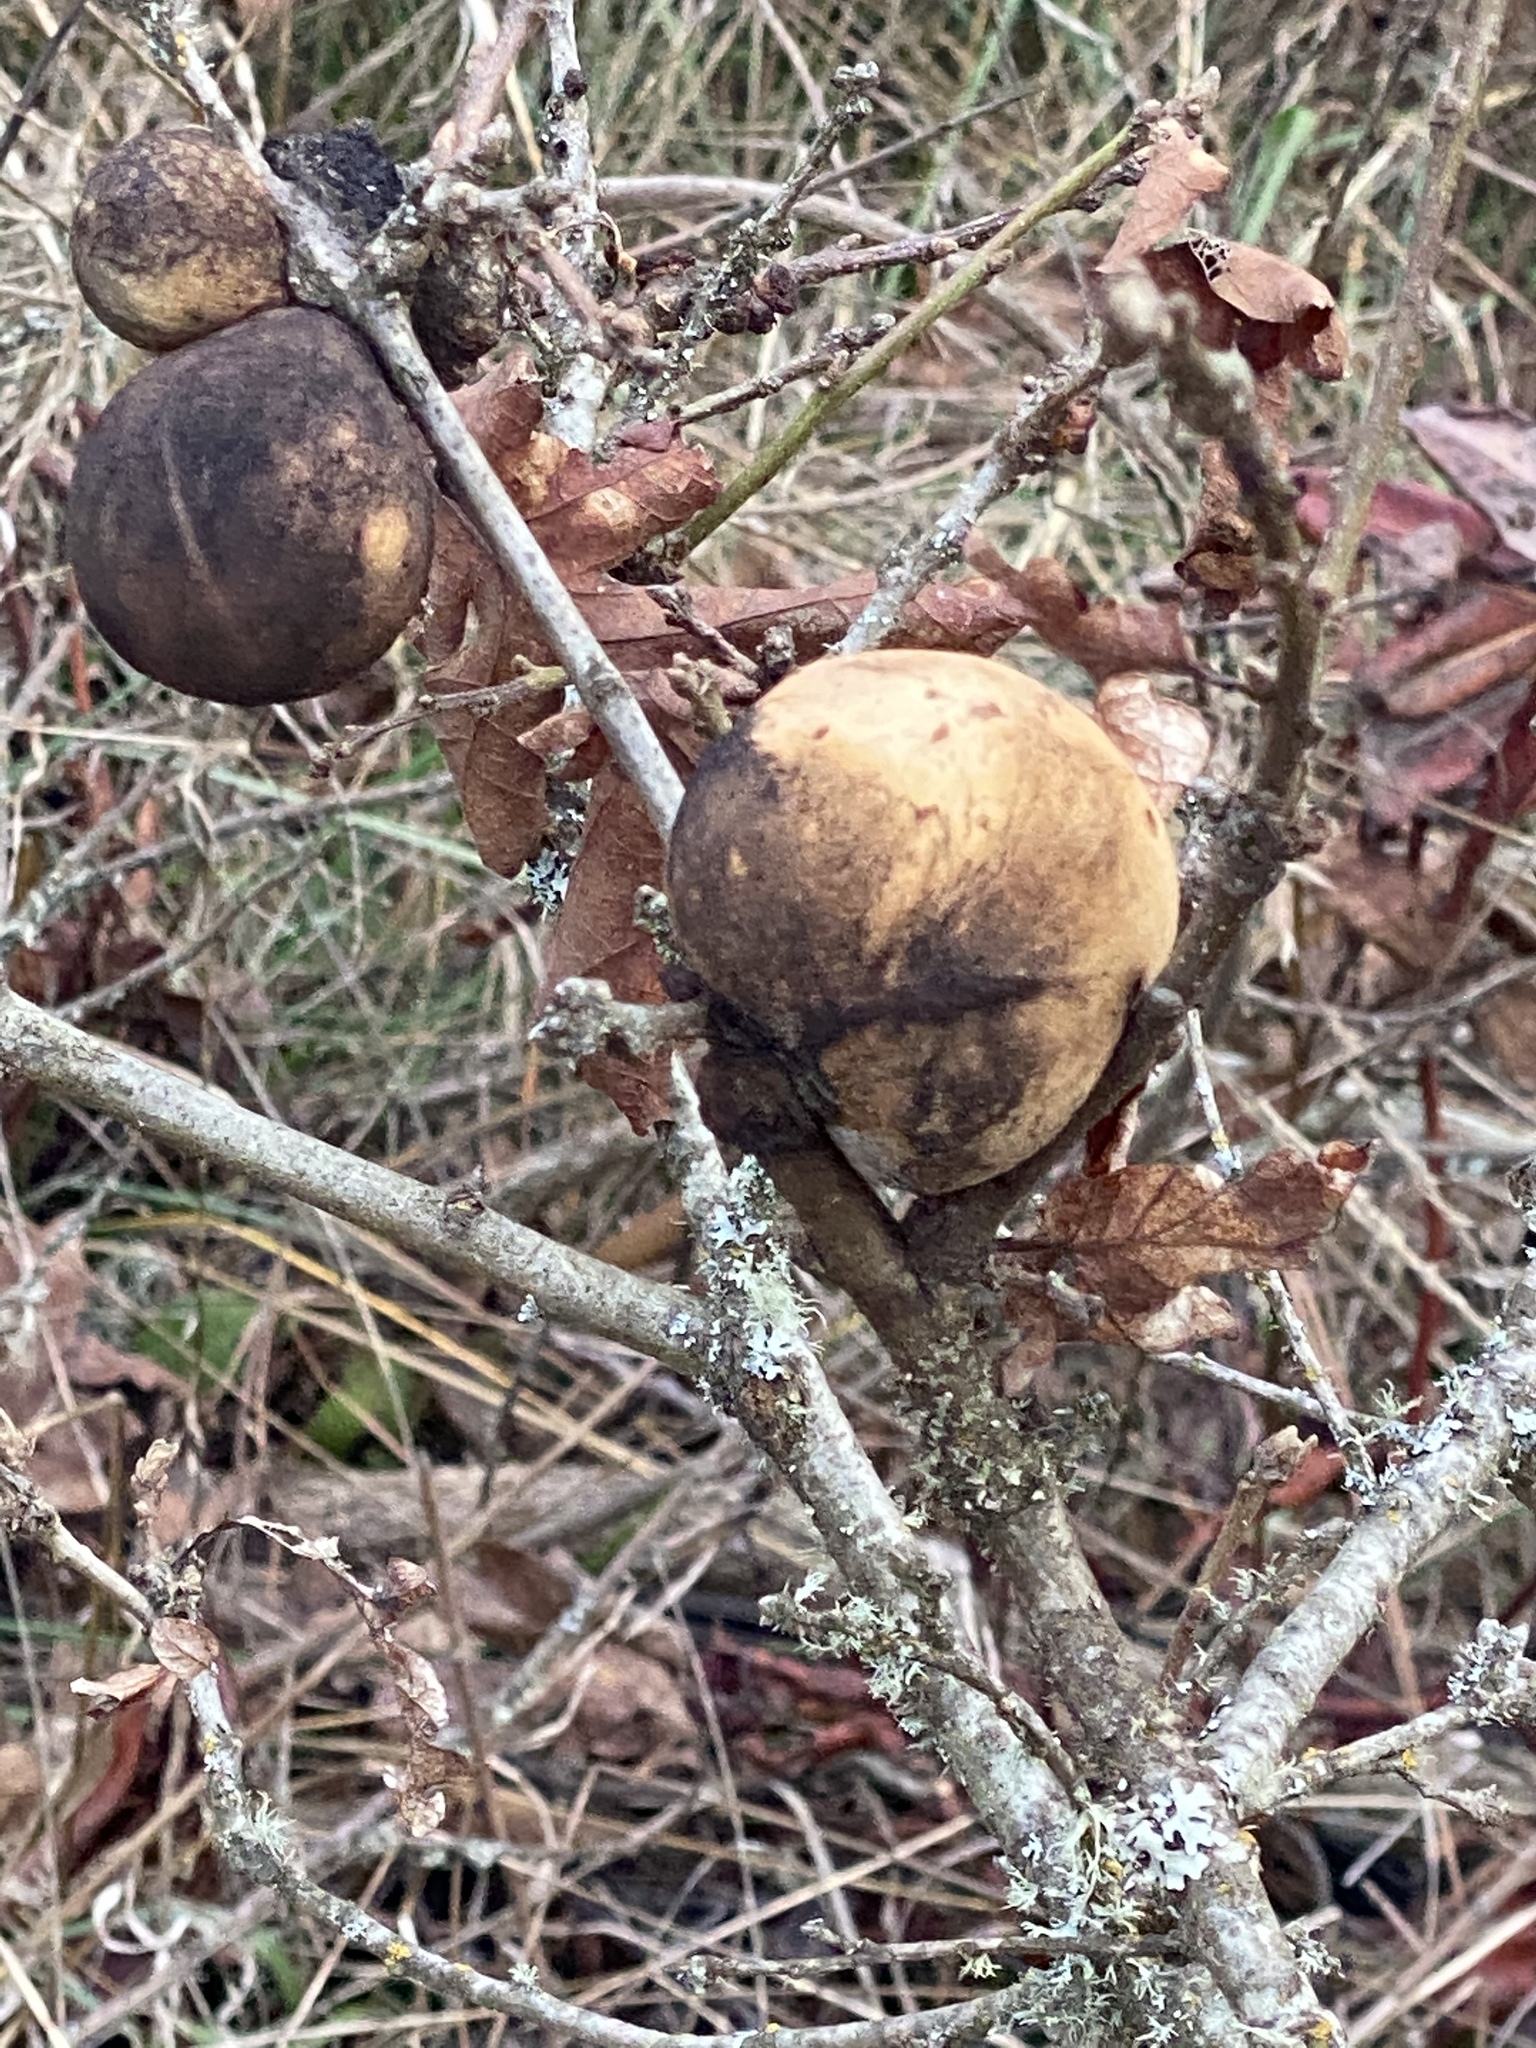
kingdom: Animalia
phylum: Arthropoda
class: Insecta
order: Hymenoptera
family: Cynipidae
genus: Andricus
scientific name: Andricus quercuscalifornicus
